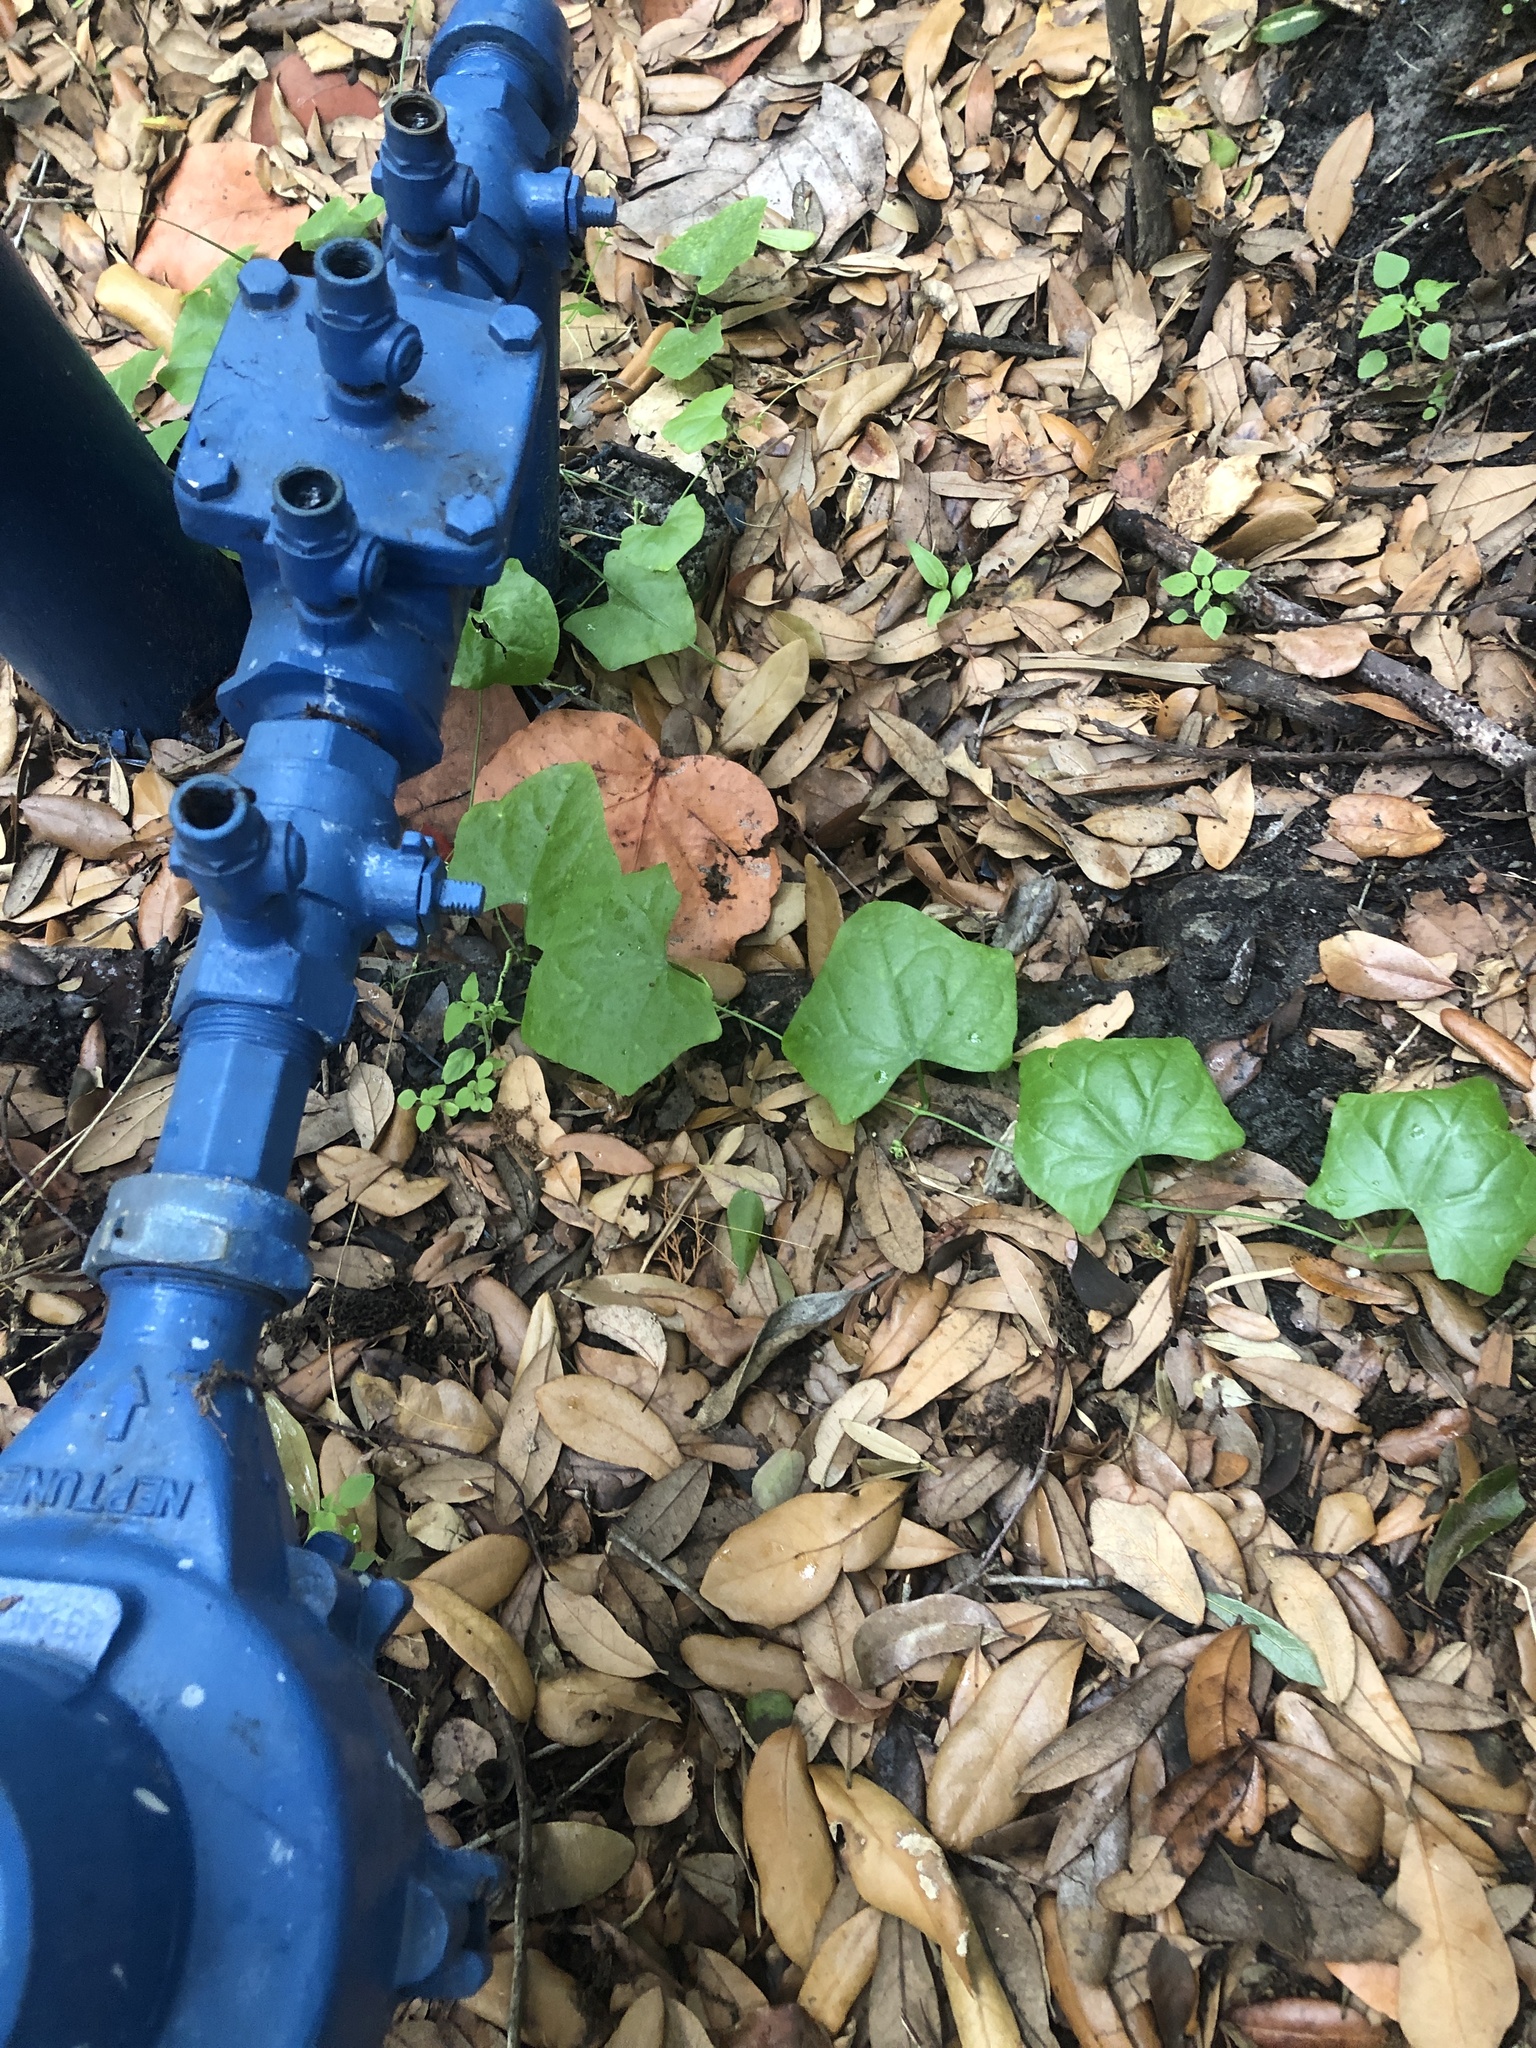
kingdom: Plantae
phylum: Tracheophyta
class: Magnoliopsida
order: Cucurbitales
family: Cucurbitaceae
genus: Melothria
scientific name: Melothria pendula
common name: Creeping-cucumber
